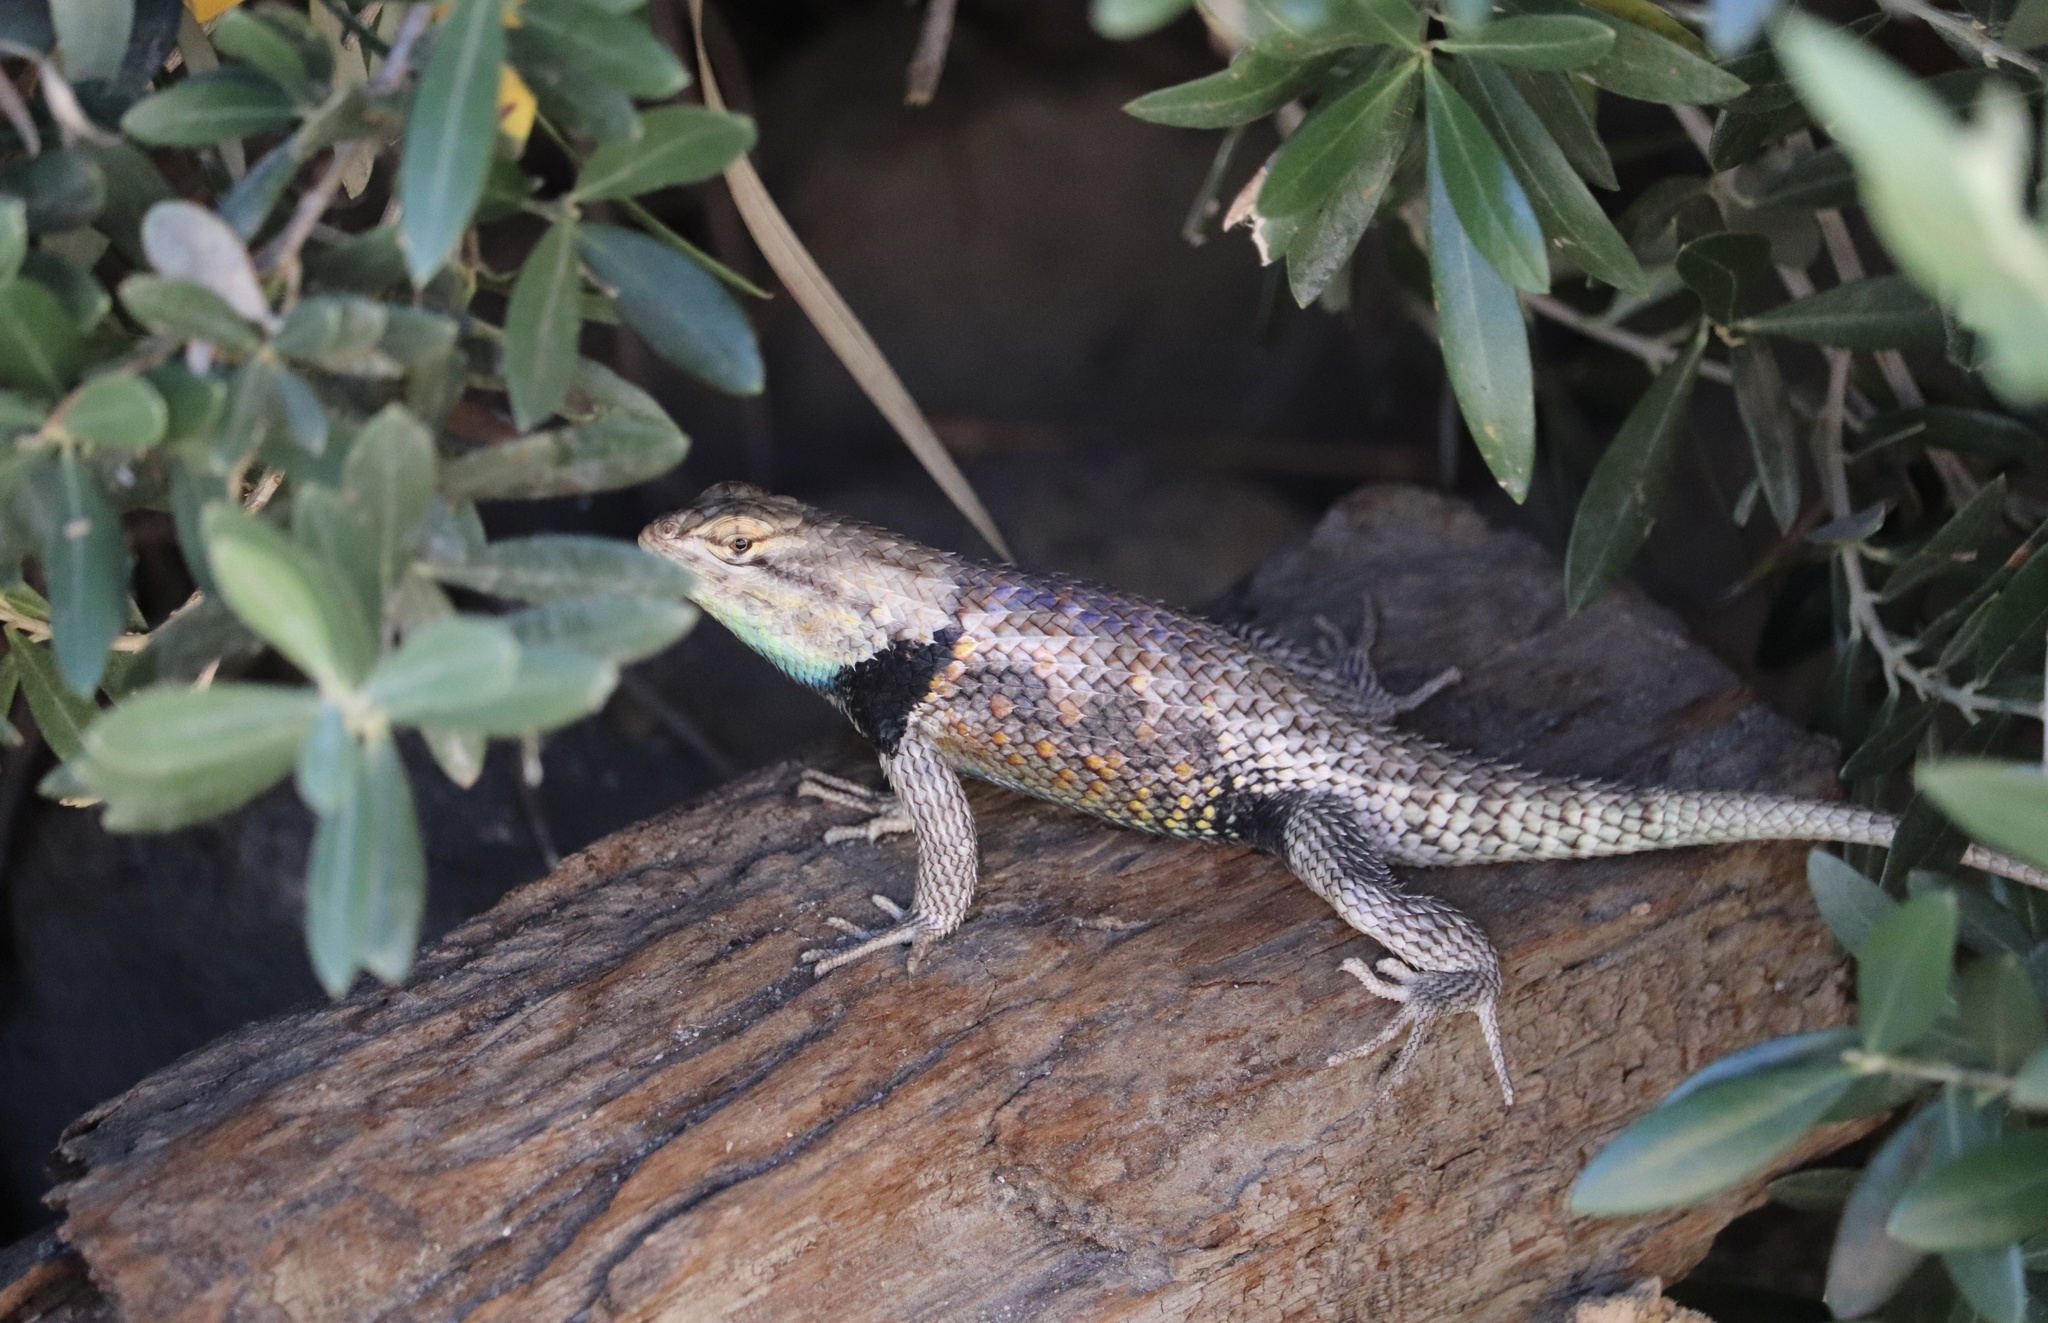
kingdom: Animalia
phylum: Chordata
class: Squamata
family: Phrynosomatidae
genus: Sceloporus
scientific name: Sceloporus magister
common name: Desert spiny lizard
